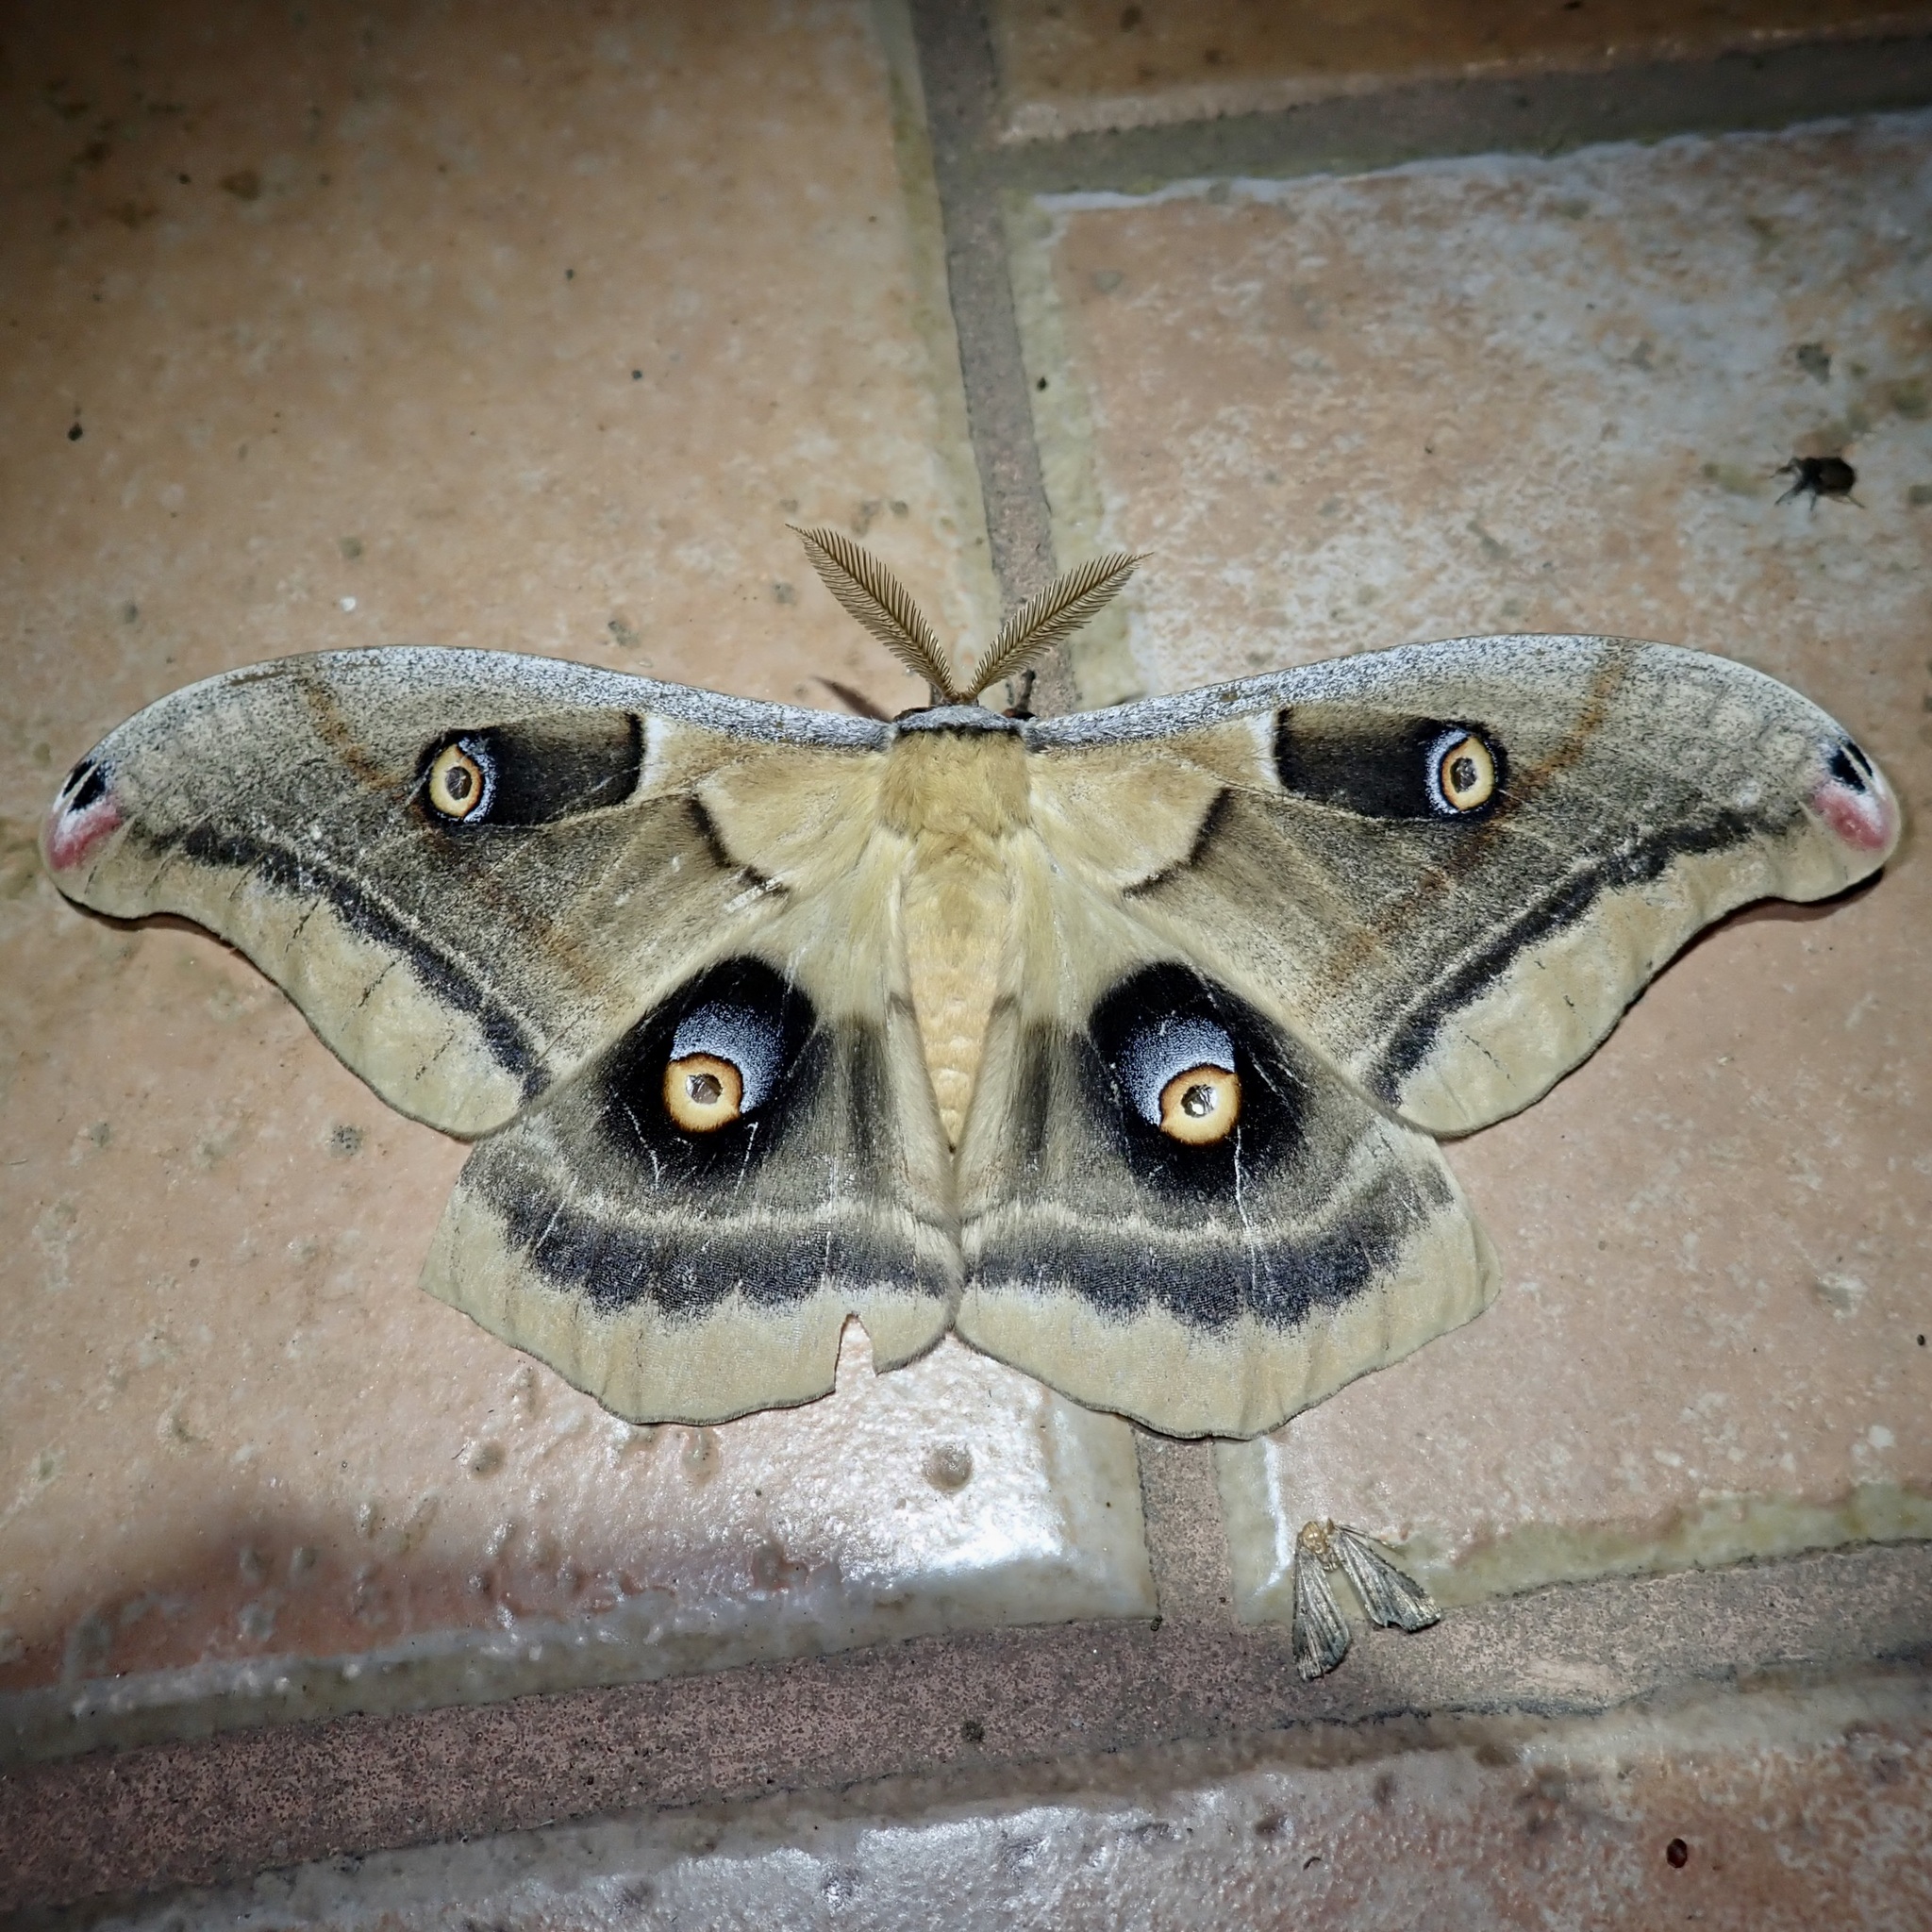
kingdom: Animalia
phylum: Arthropoda
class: Insecta
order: Lepidoptera
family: Saturniidae
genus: Antheraea
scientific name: Antheraea oculea
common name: Arizona polyphemus moth
